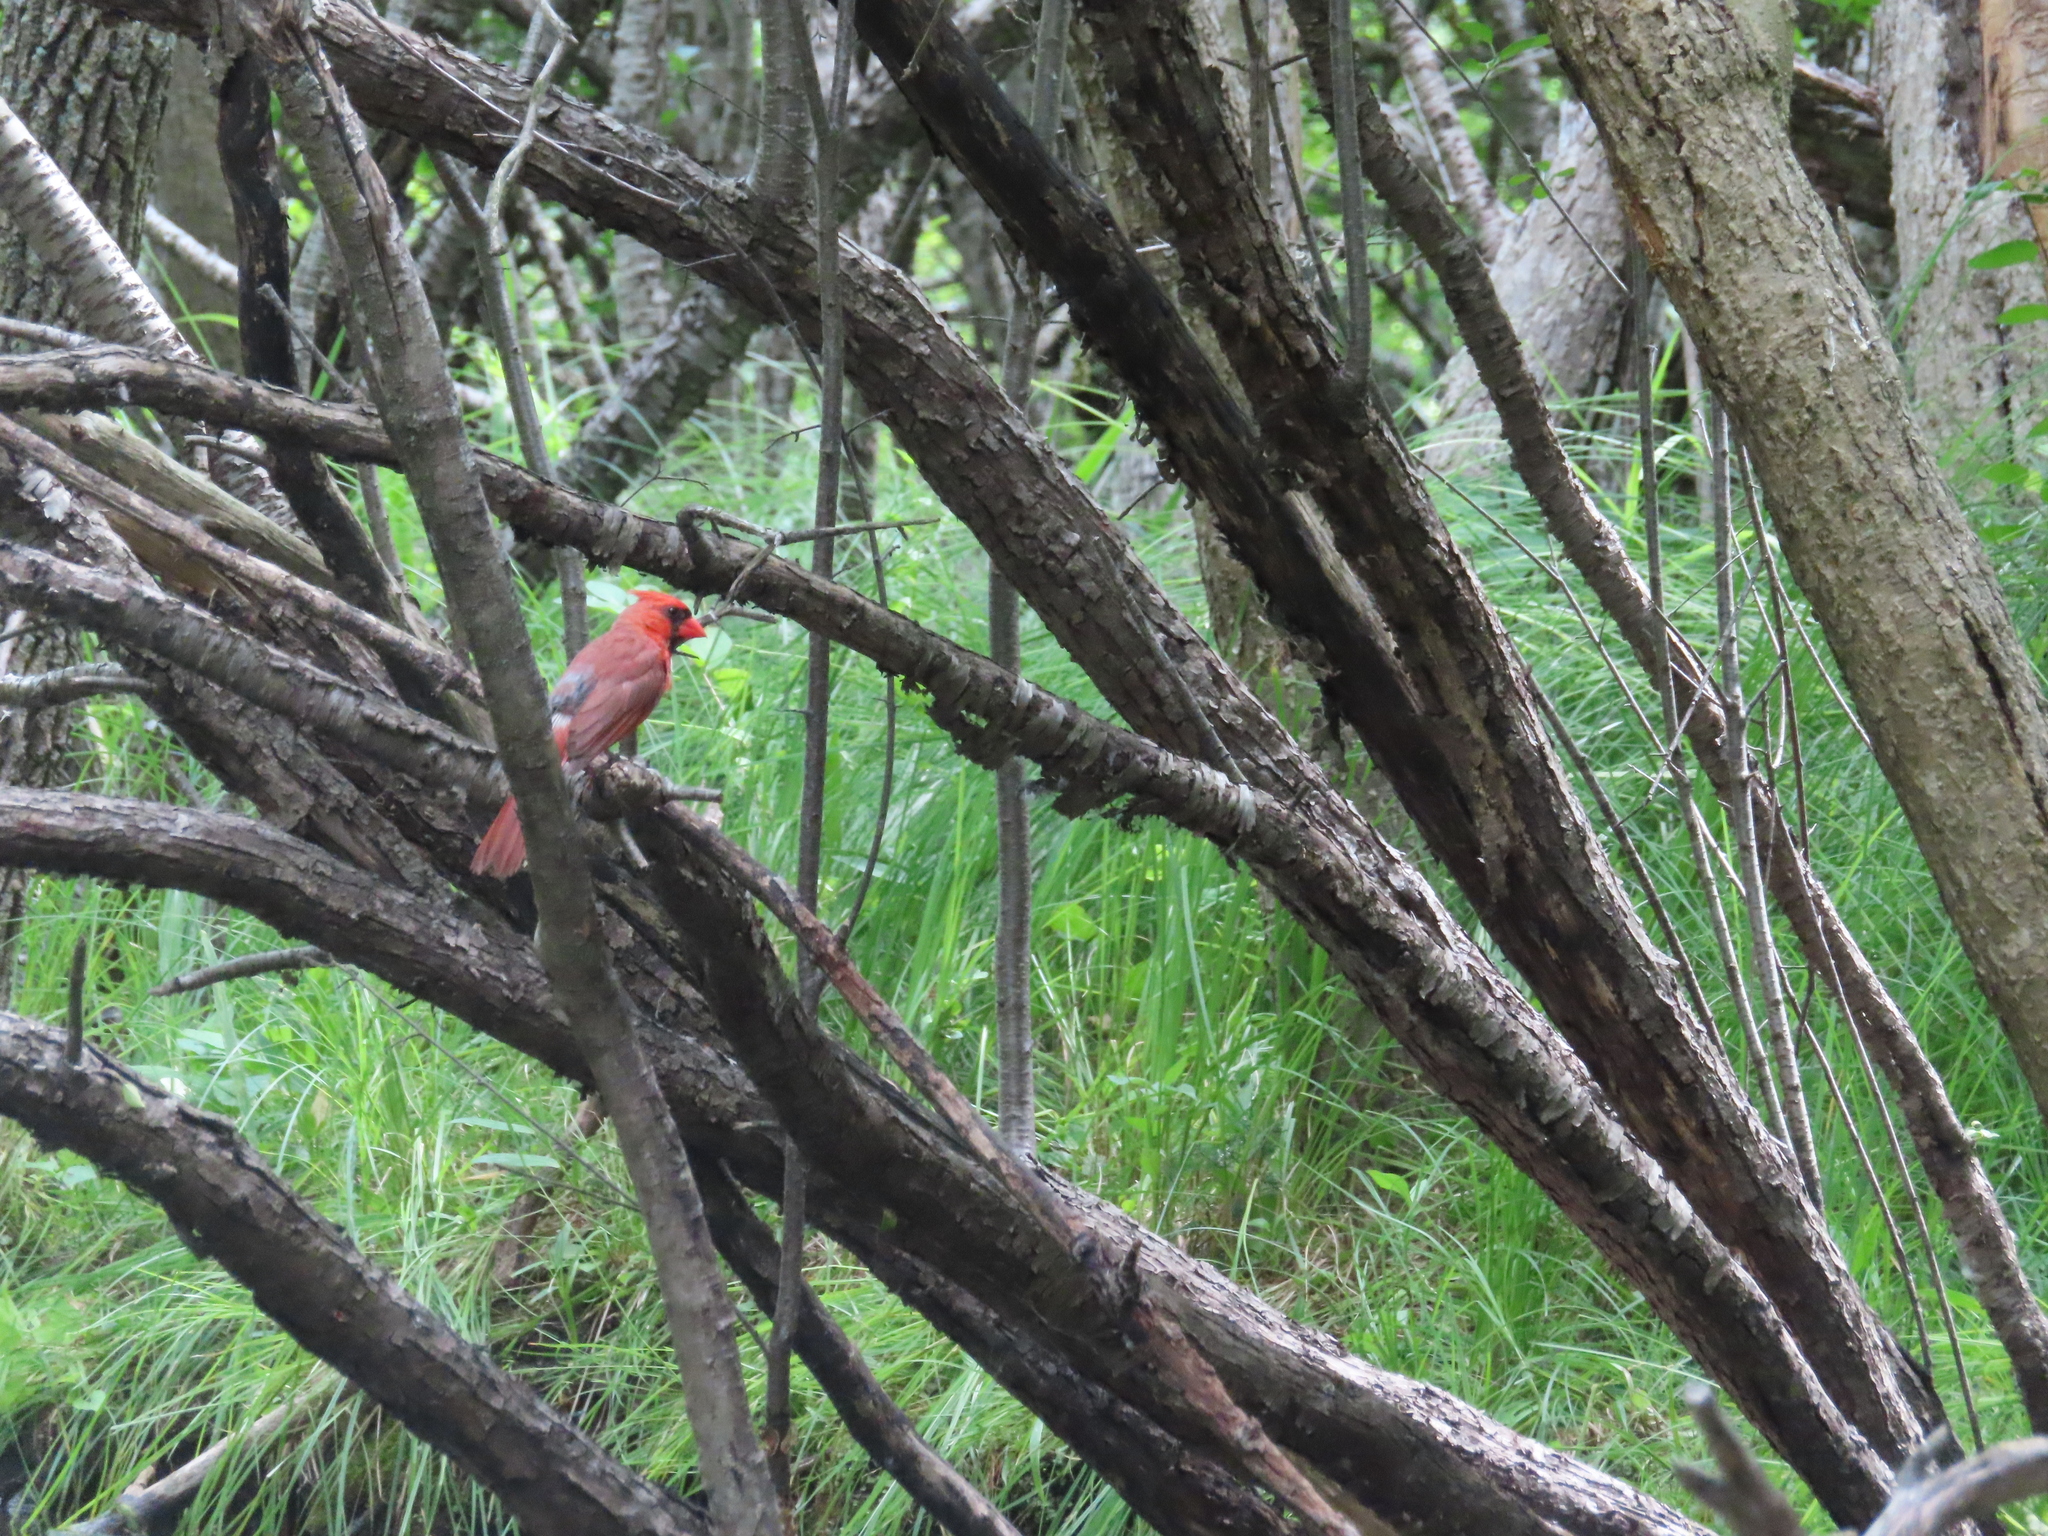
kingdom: Animalia
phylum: Chordata
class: Aves
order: Passeriformes
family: Cardinalidae
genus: Cardinalis
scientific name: Cardinalis cardinalis
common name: Northern cardinal
